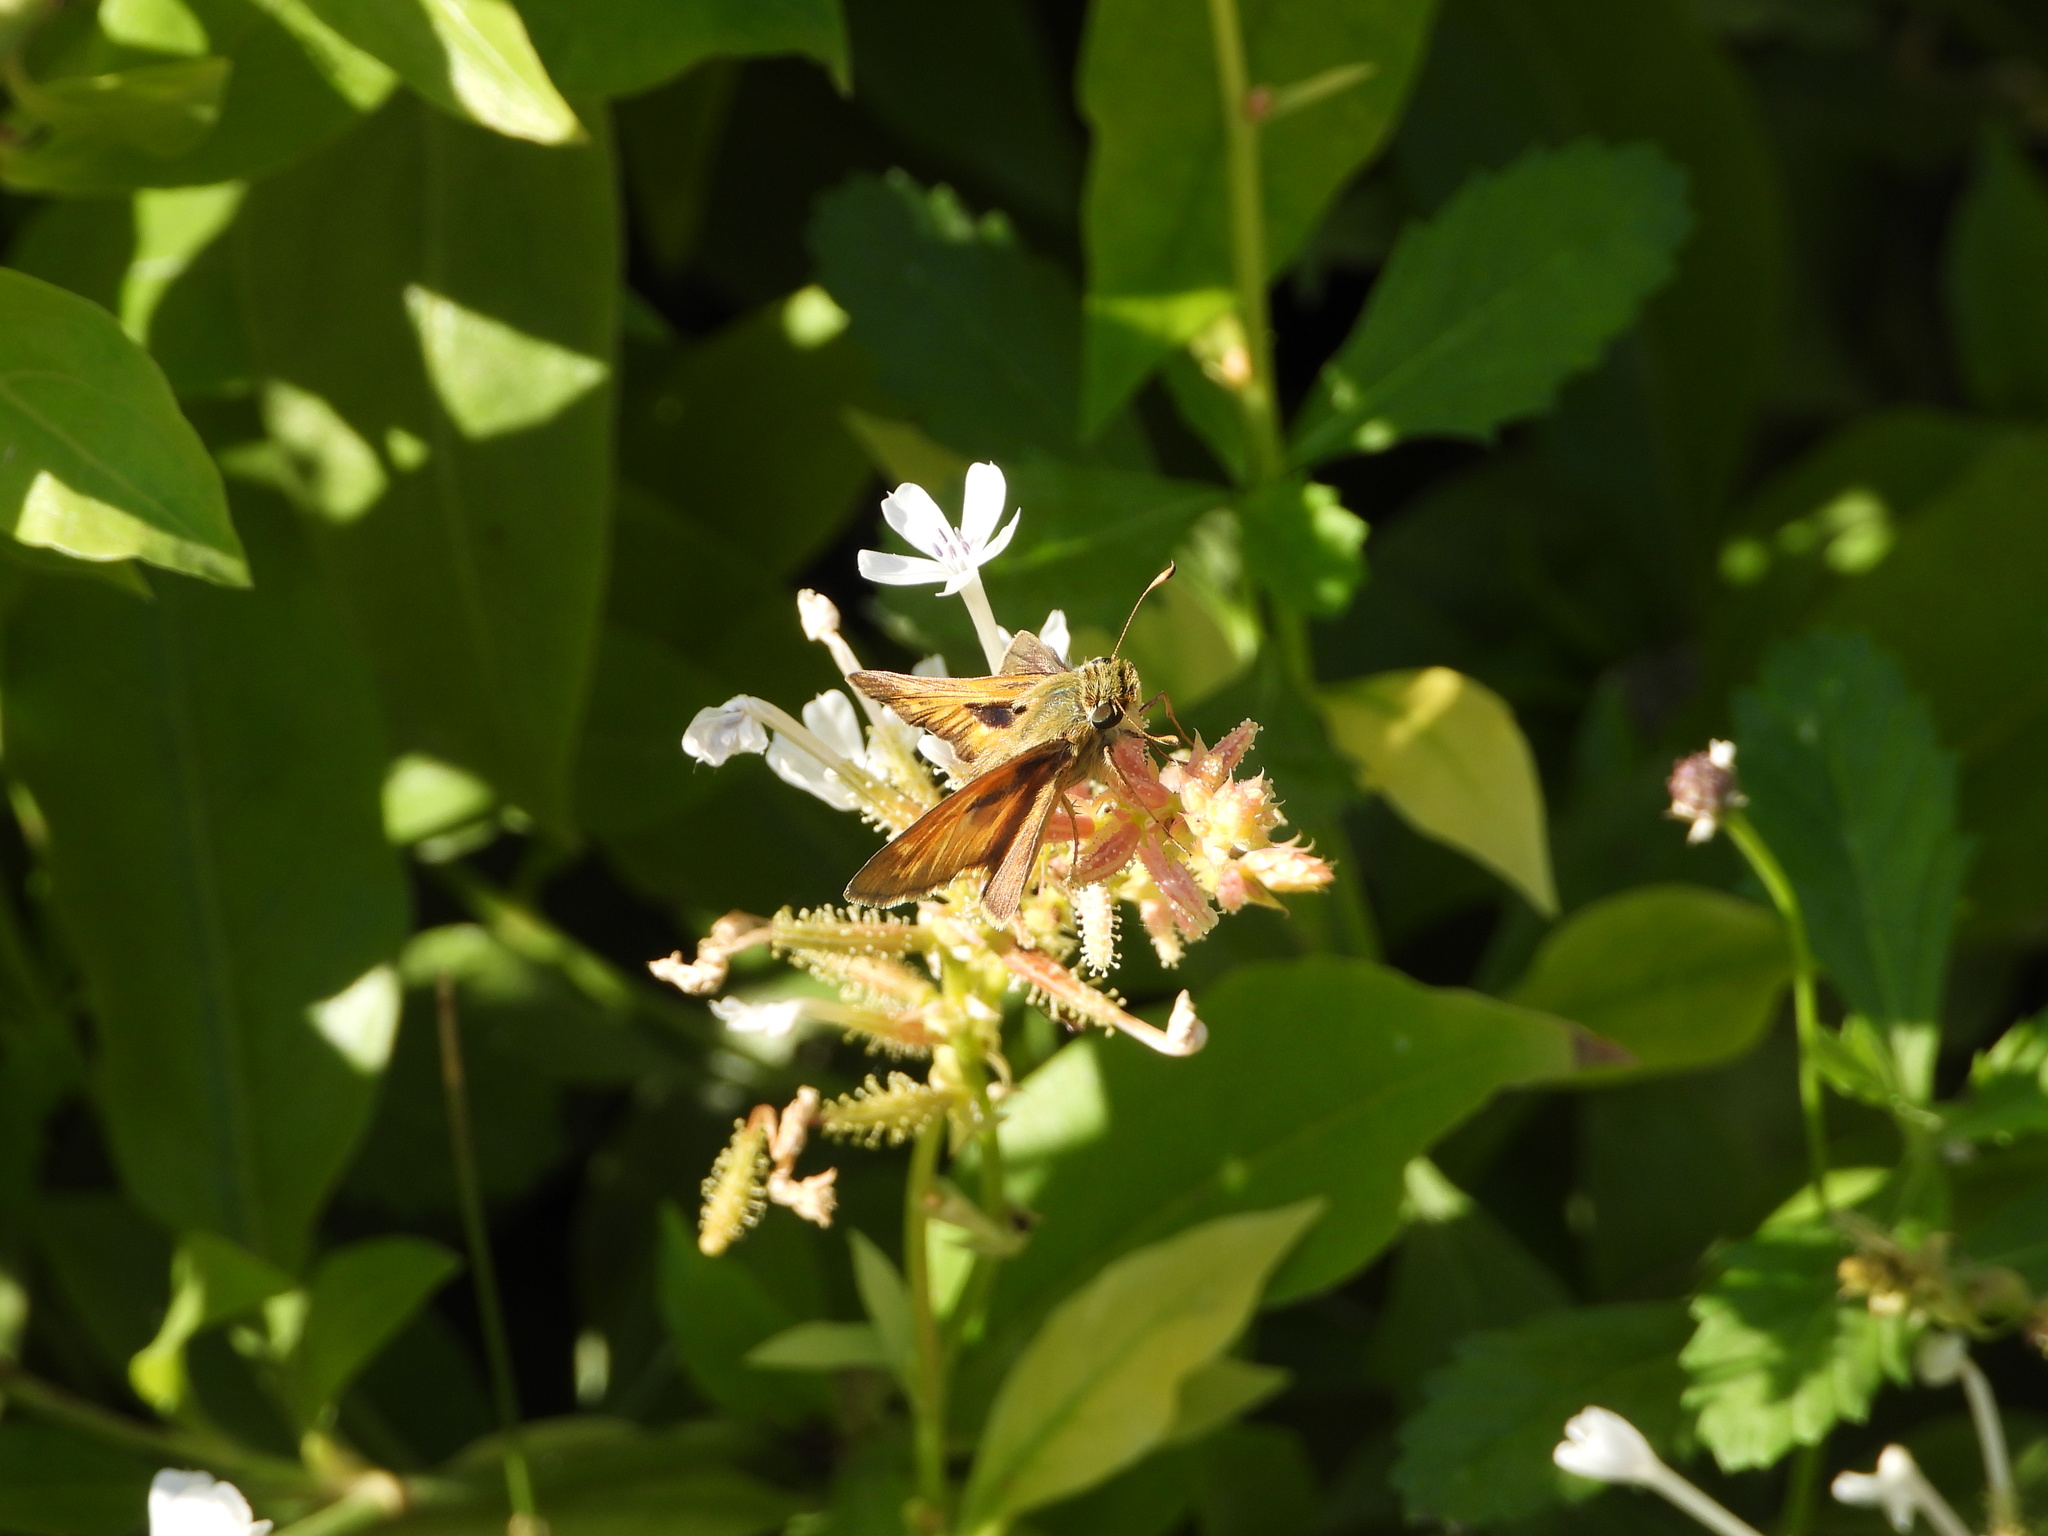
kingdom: Animalia
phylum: Arthropoda
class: Insecta
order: Lepidoptera
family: Hesperiidae
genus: Atalopedes
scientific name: Atalopedes
